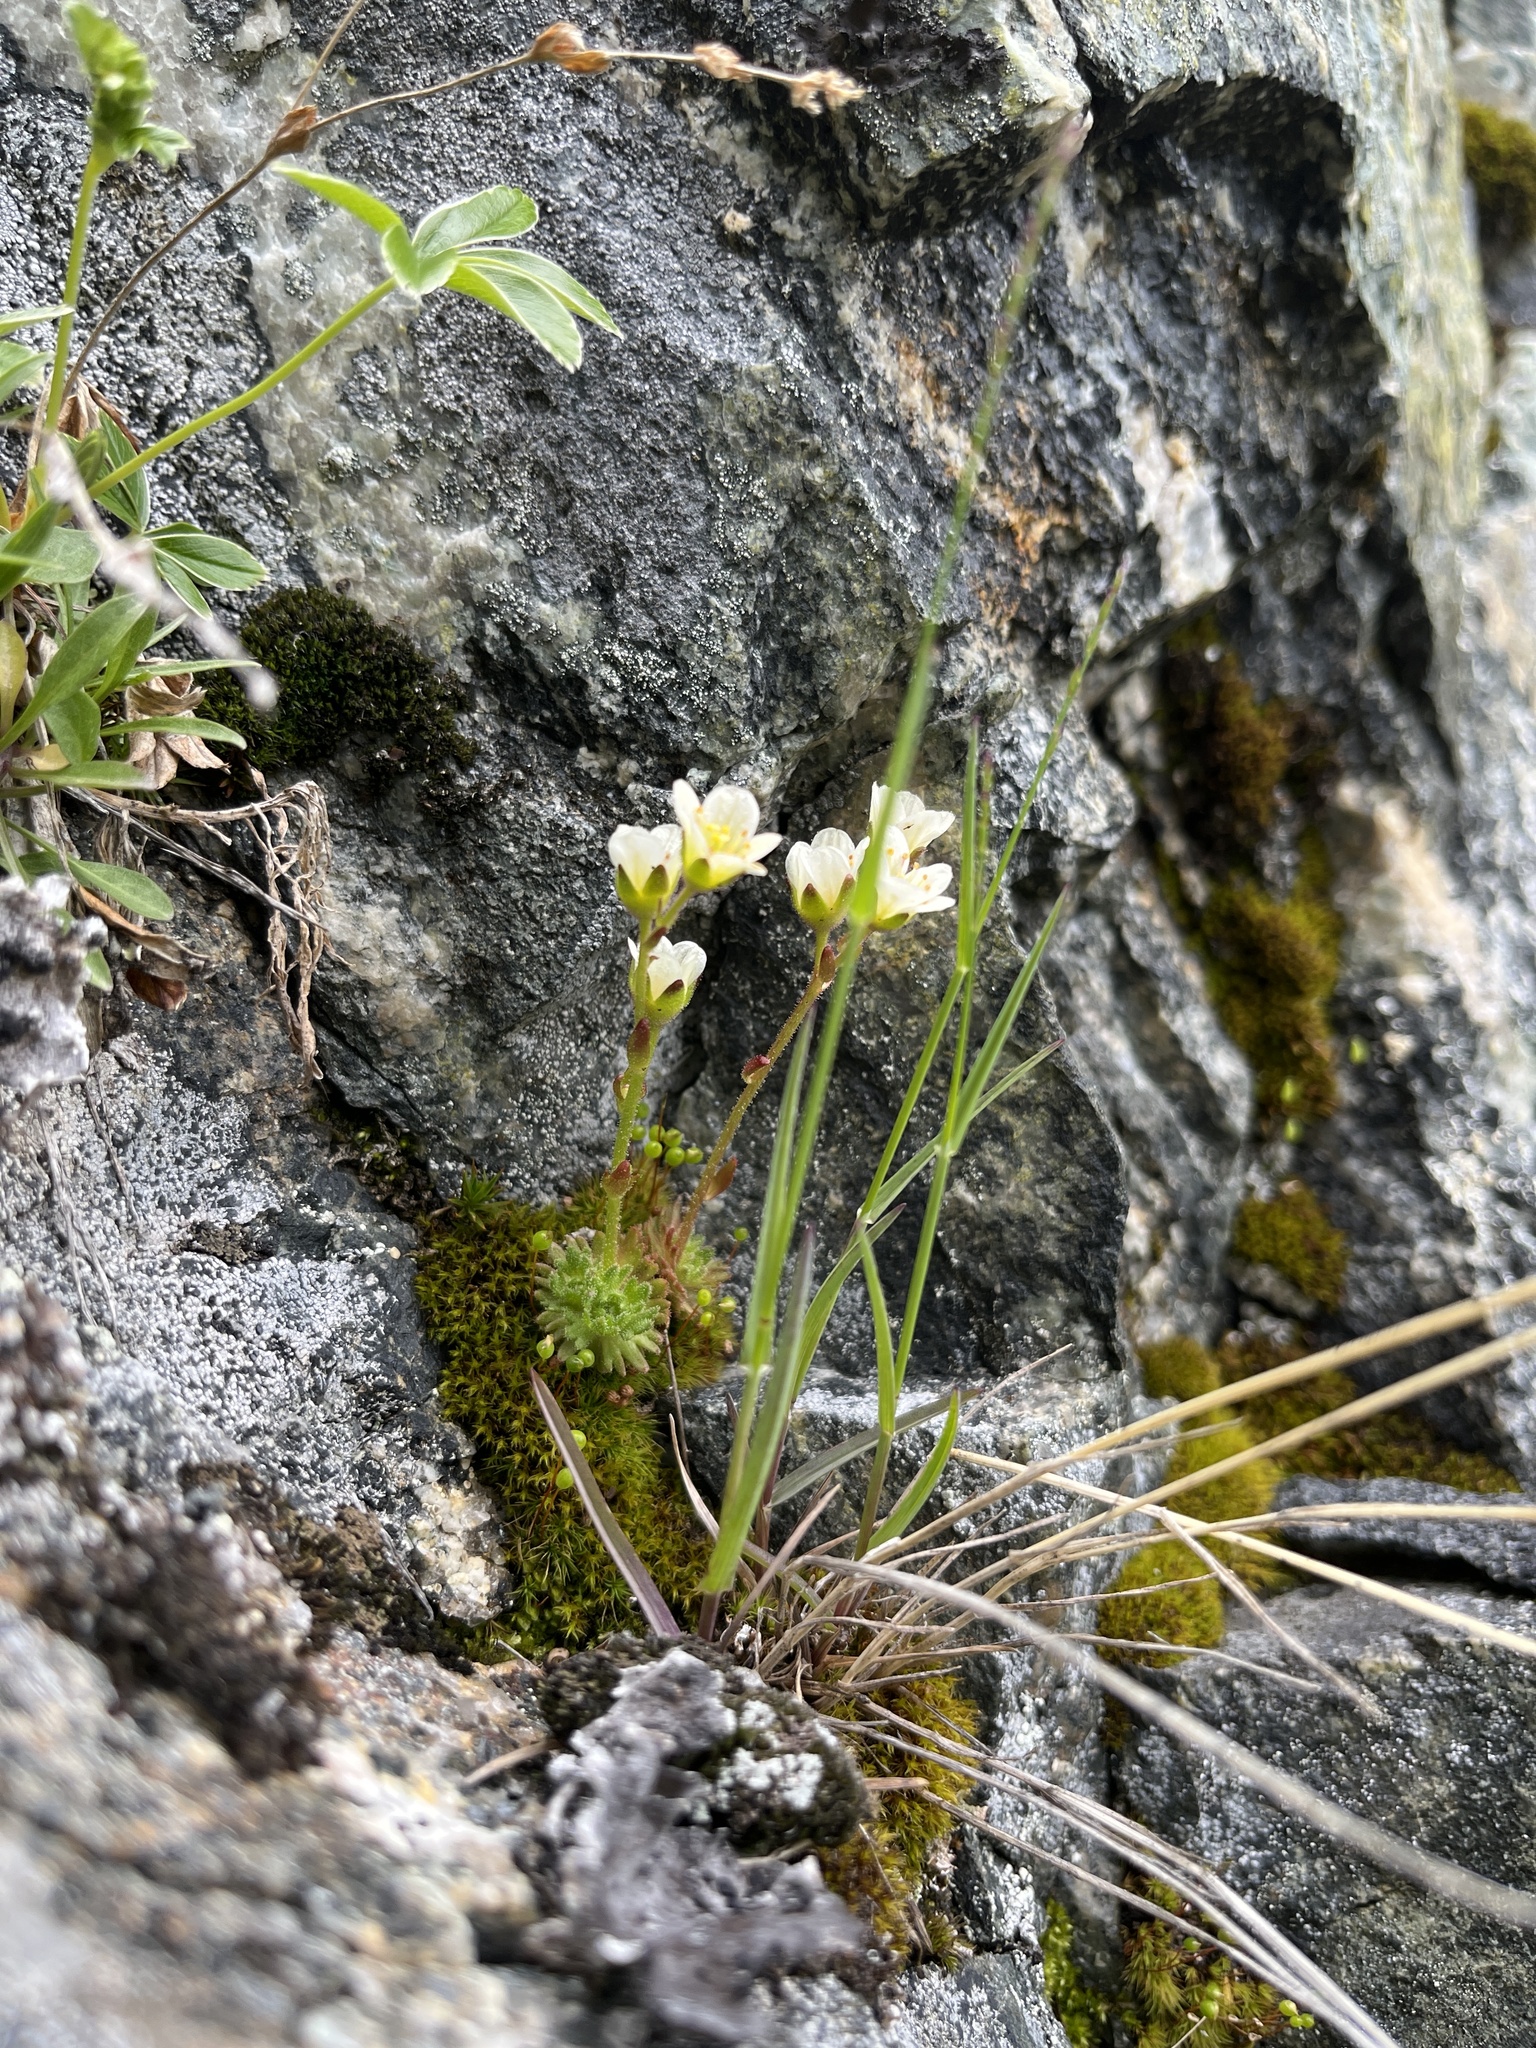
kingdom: Plantae
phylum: Tracheophyta
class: Magnoliopsida
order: Saxifragales
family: Saxifragaceae
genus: Saxifraga
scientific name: Saxifraga cespitosa
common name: Tufted saxifrage
